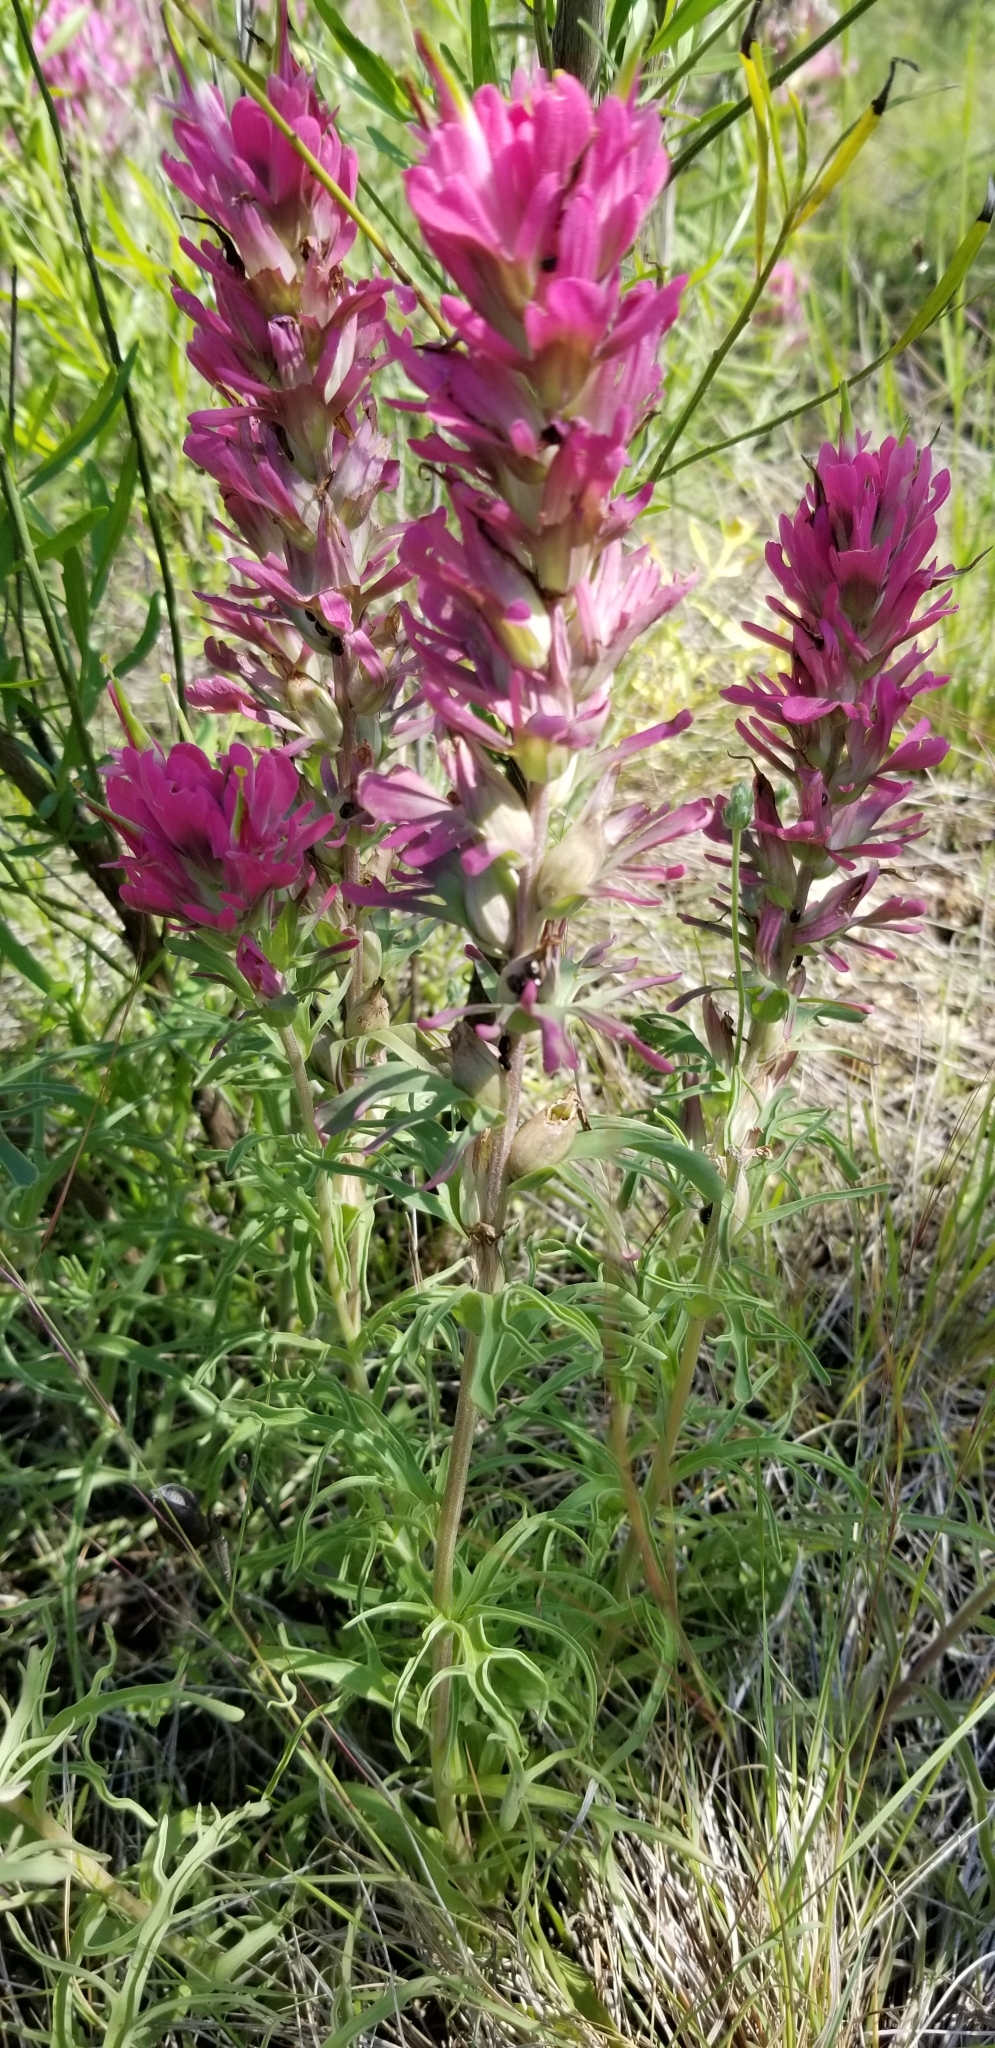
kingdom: Plantae
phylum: Tracheophyta
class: Magnoliopsida
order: Lamiales
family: Orobanchaceae
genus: Castilleja
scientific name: Castilleja purpurea
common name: Plains paintbrush
